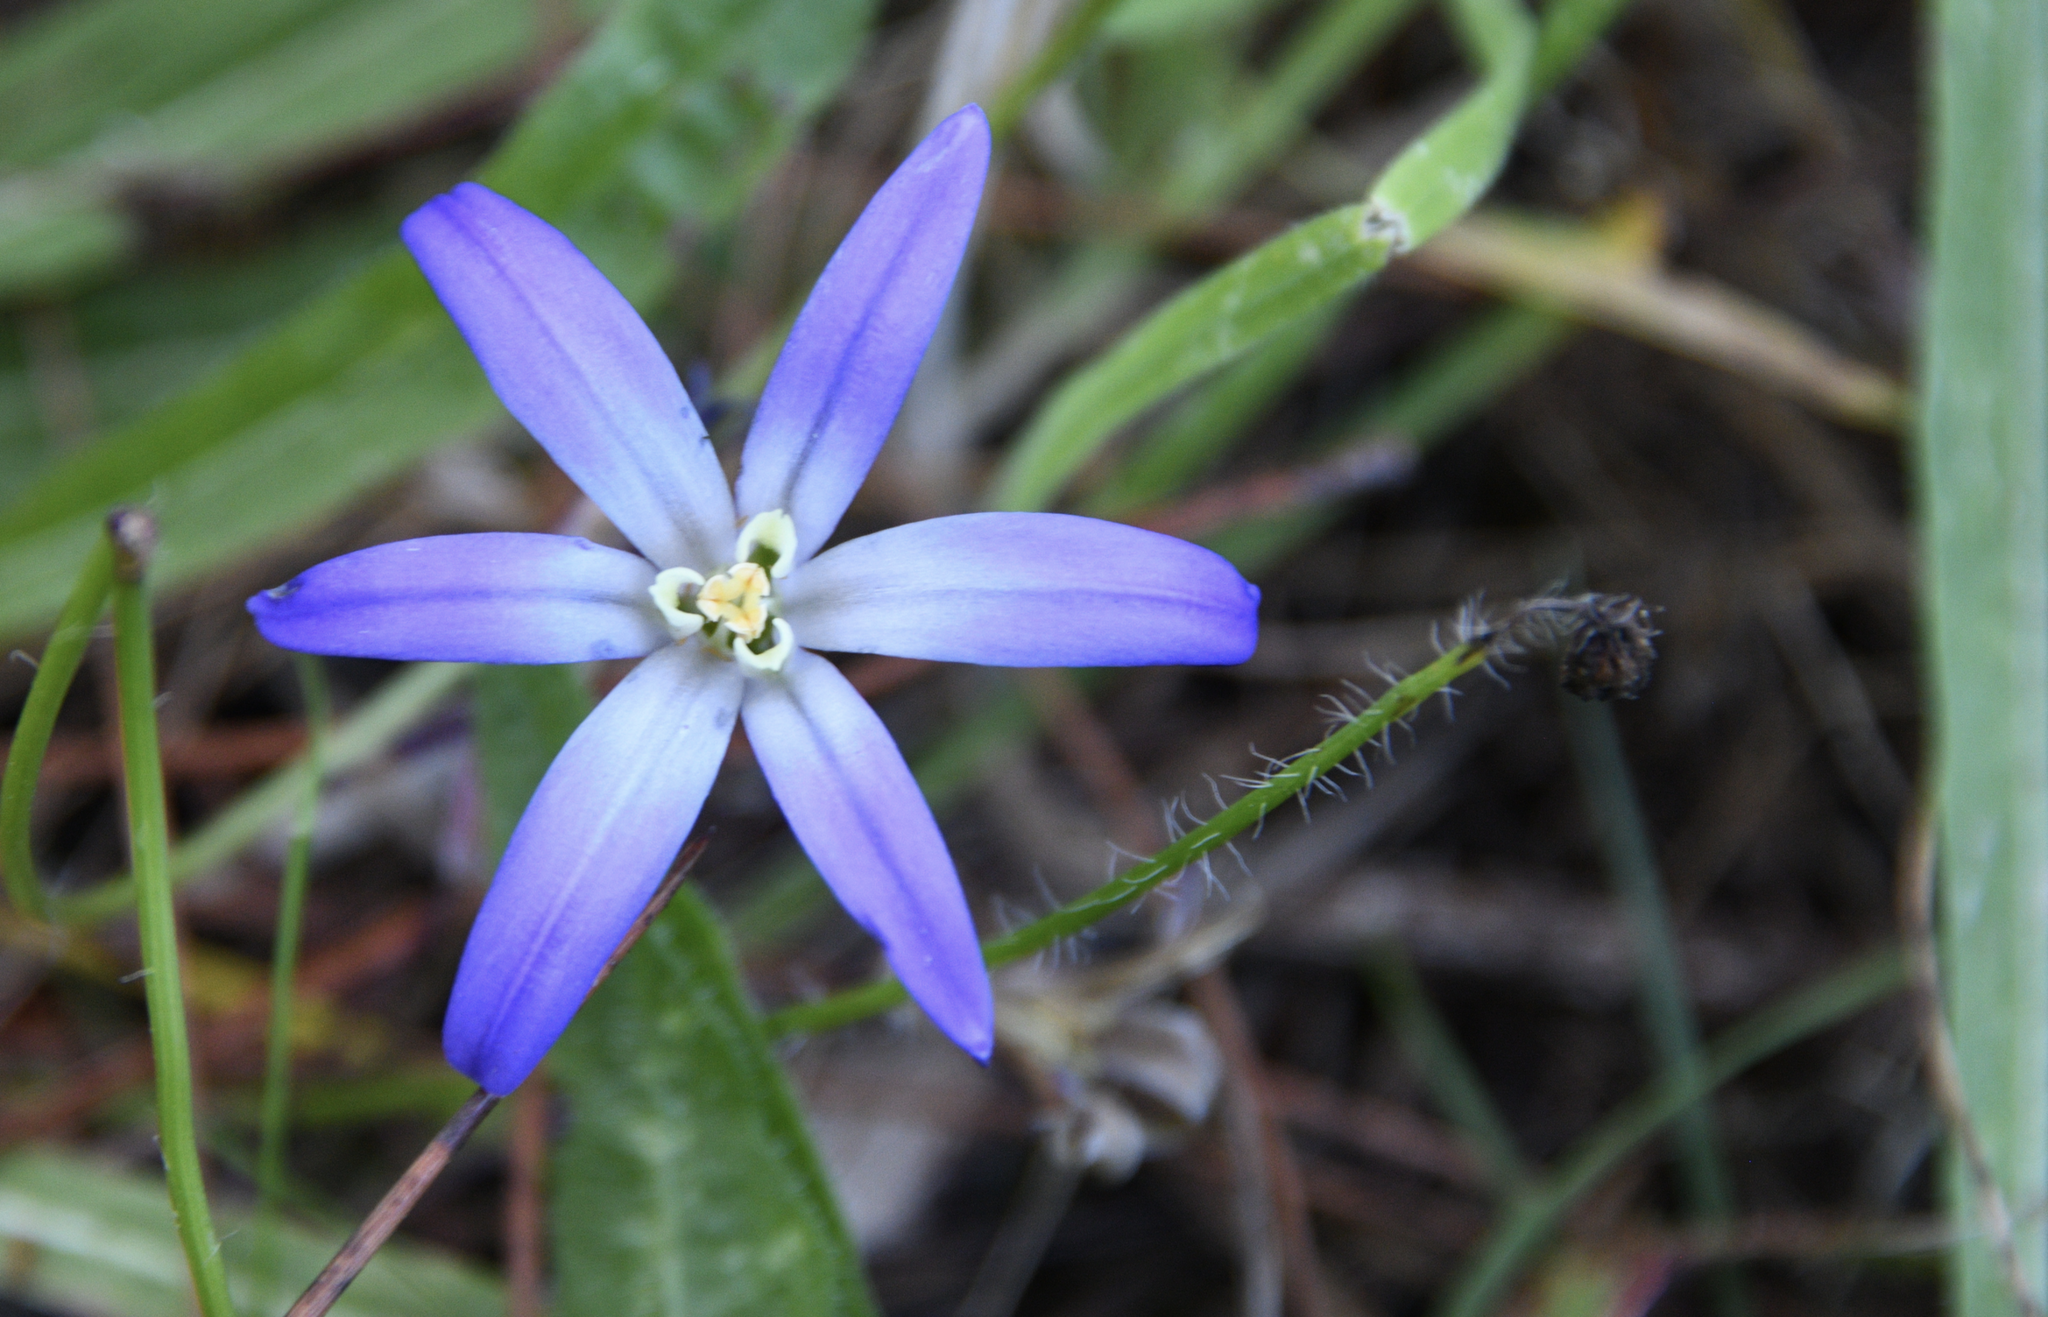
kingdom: Plantae
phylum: Tracheophyta
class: Liliopsida
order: Asparagales
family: Asparagaceae
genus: Brodiaea
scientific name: Brodiaea terrestris
